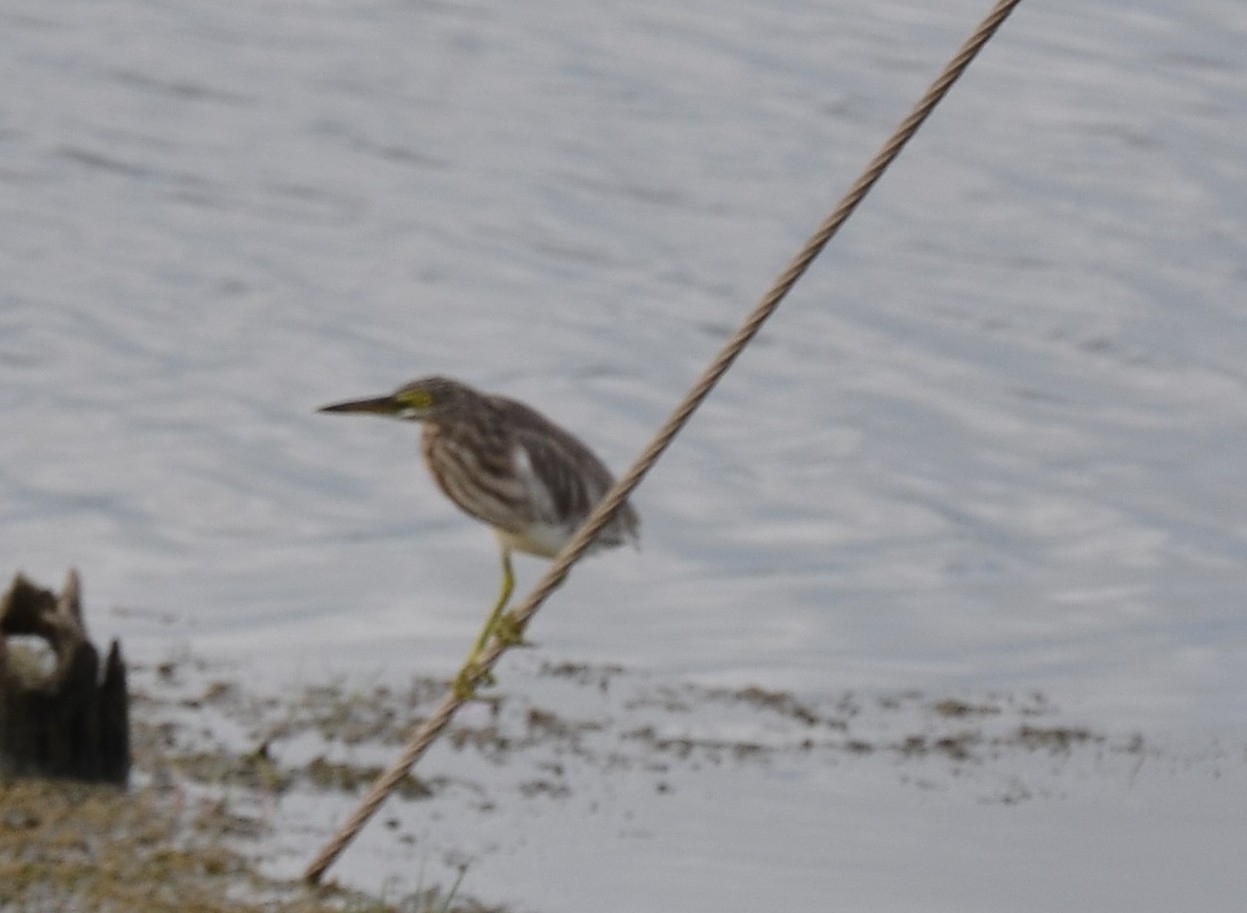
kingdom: Animalia
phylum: Chordata
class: Aves
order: Pelecaniformes
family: Ardeidae
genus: Ardeola
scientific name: Ardeola grayii
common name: Indian pond heron
